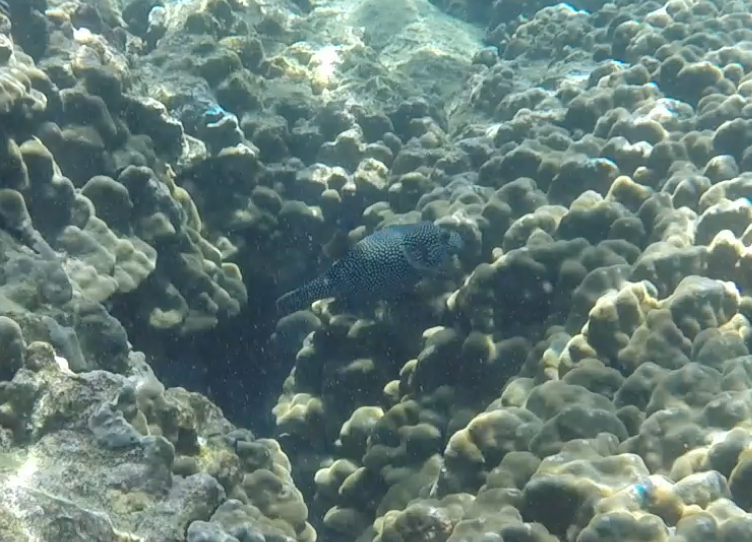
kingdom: Animalia
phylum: Chordata
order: Tetraodontiformes
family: Tetraodontidae
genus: Arothron
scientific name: Arothron meleagris
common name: Guinea-fowl pufferfish
